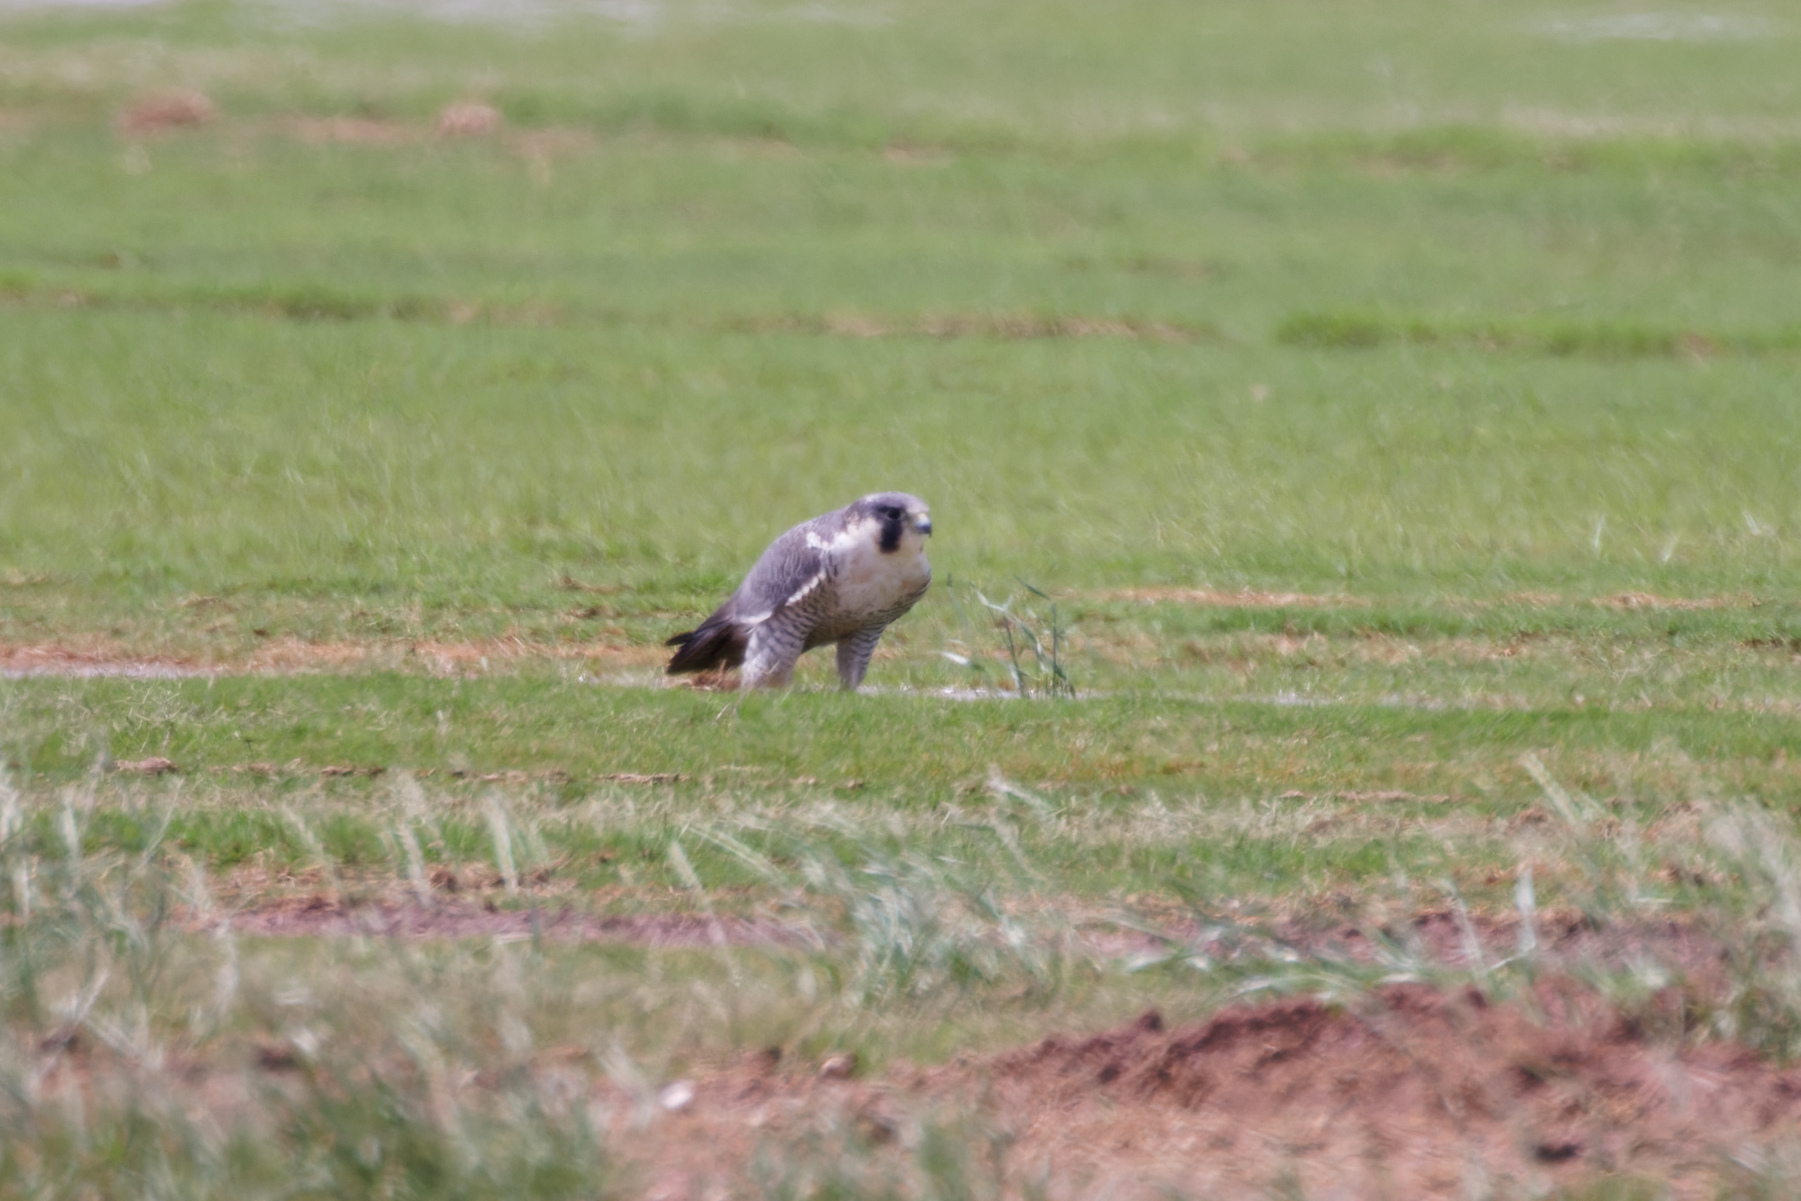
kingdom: Animalia
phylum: Chordata
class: Aves
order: Falconiformes
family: Falconidae
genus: Falco
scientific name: Falco peregrinus
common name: Peregrine falcon
